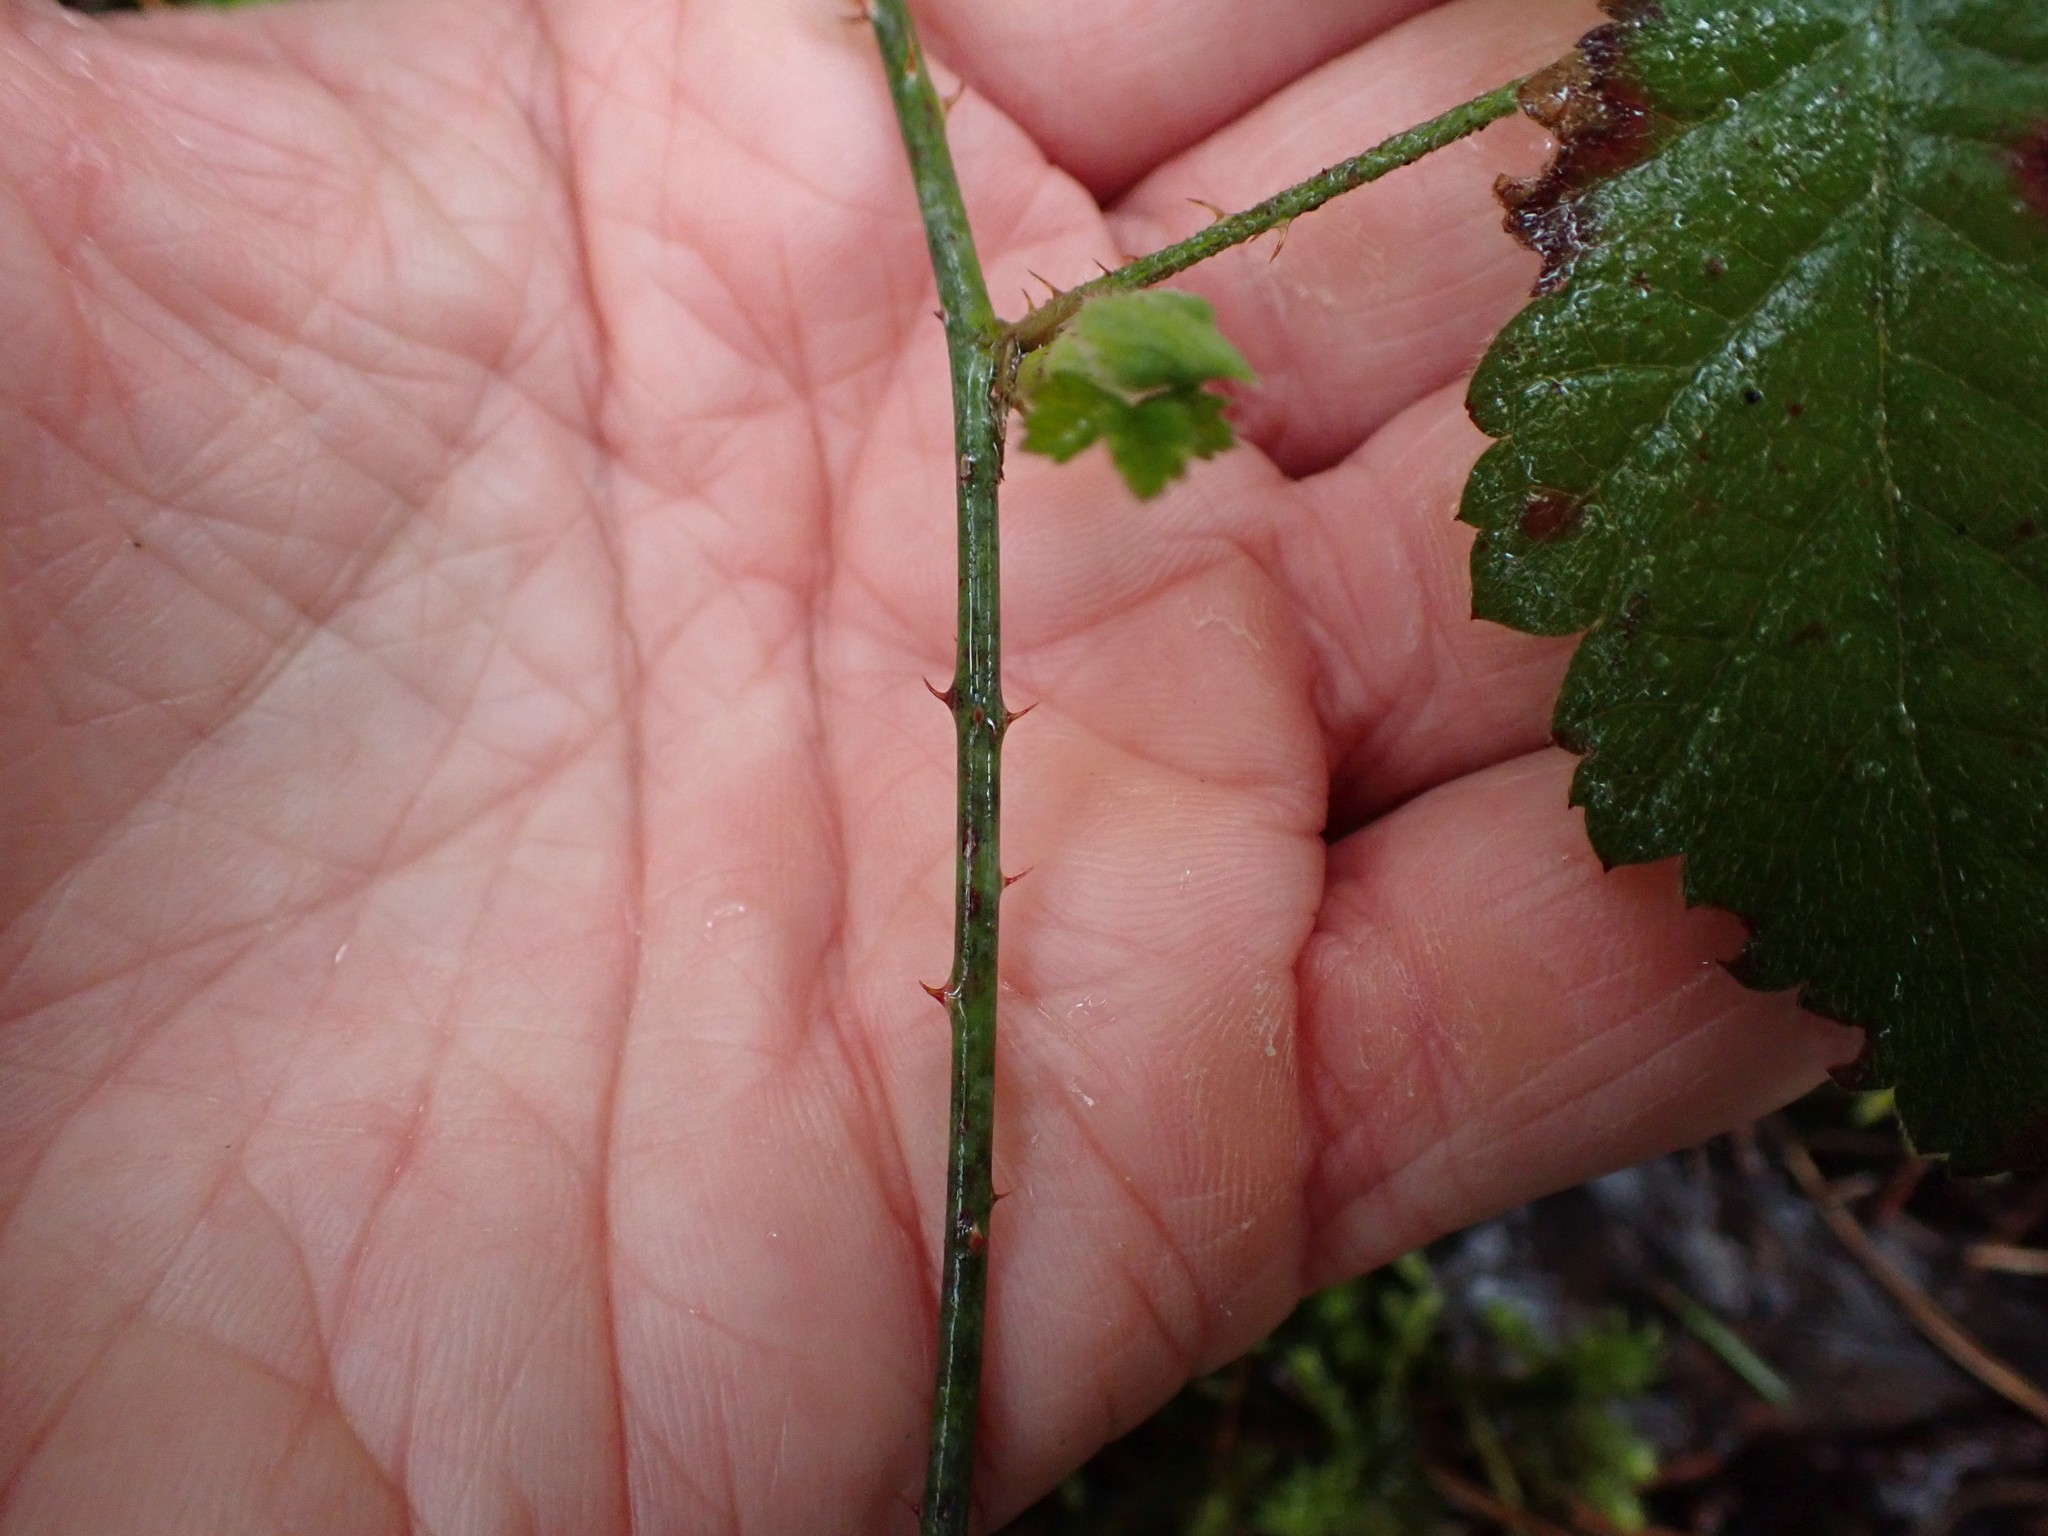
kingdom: Plantae
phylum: Tracheophyta
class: Magnoliopsida
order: Rosales
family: Rosaceae
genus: Rubus
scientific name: Rubus ursinus
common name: Pacific blackberry
